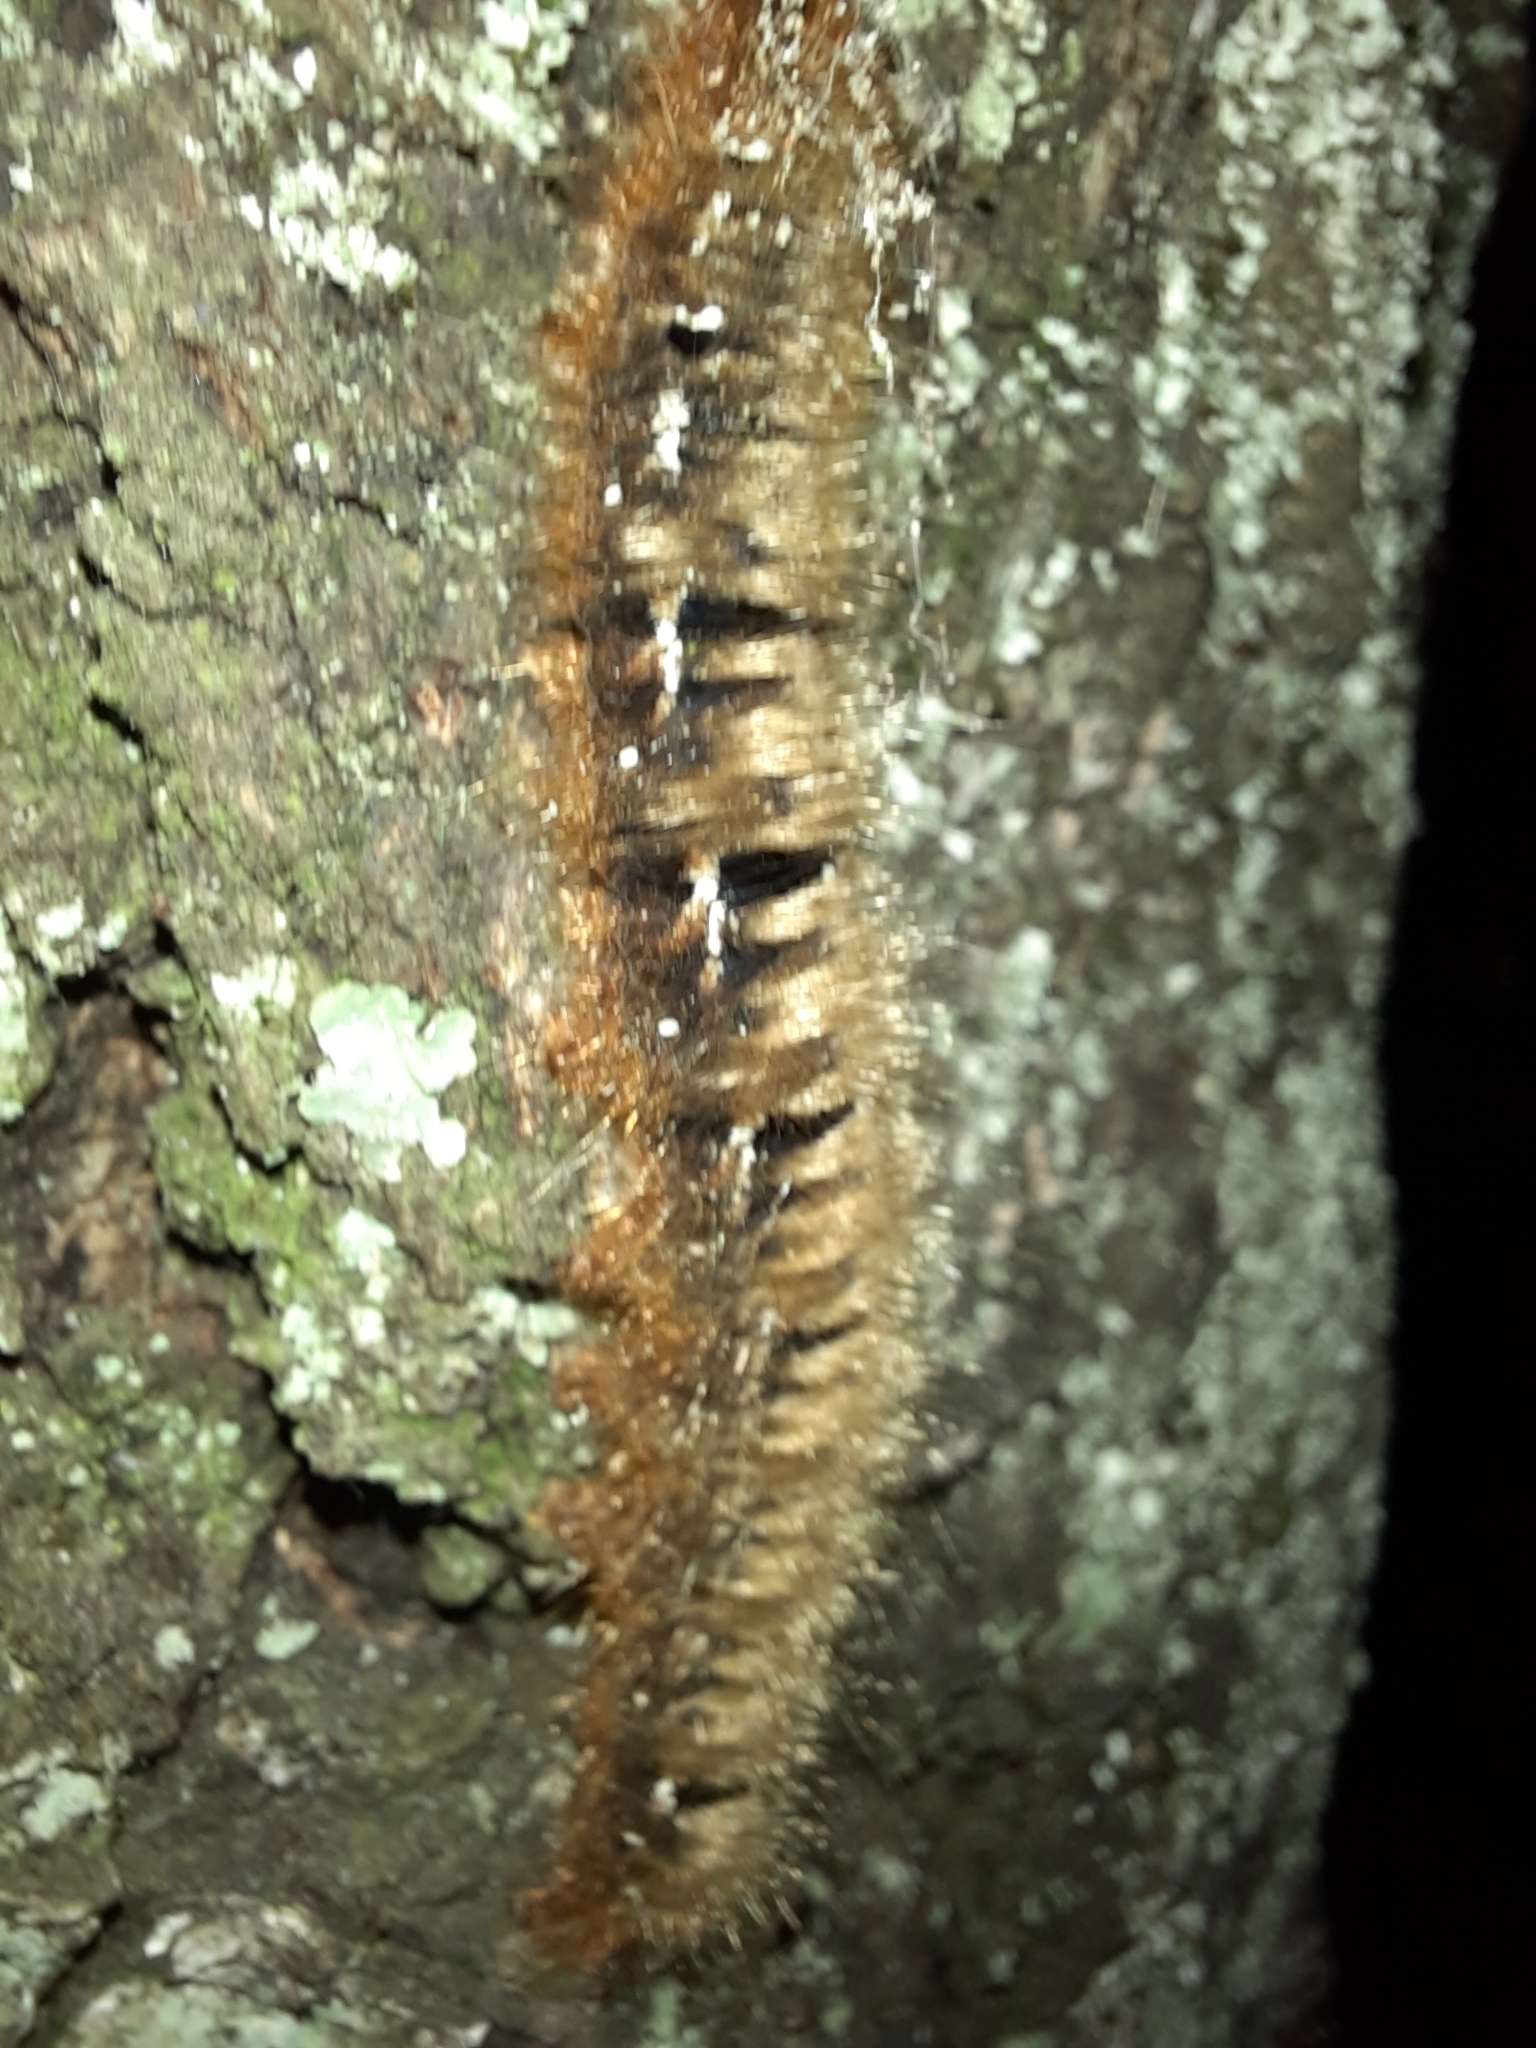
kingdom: Animalia
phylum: Arthropoda
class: Insecta
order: Lepidoptera
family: Lasiocampidae
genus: Lasiocampa
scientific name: Lasiocampa quercus
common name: Oak eggar
